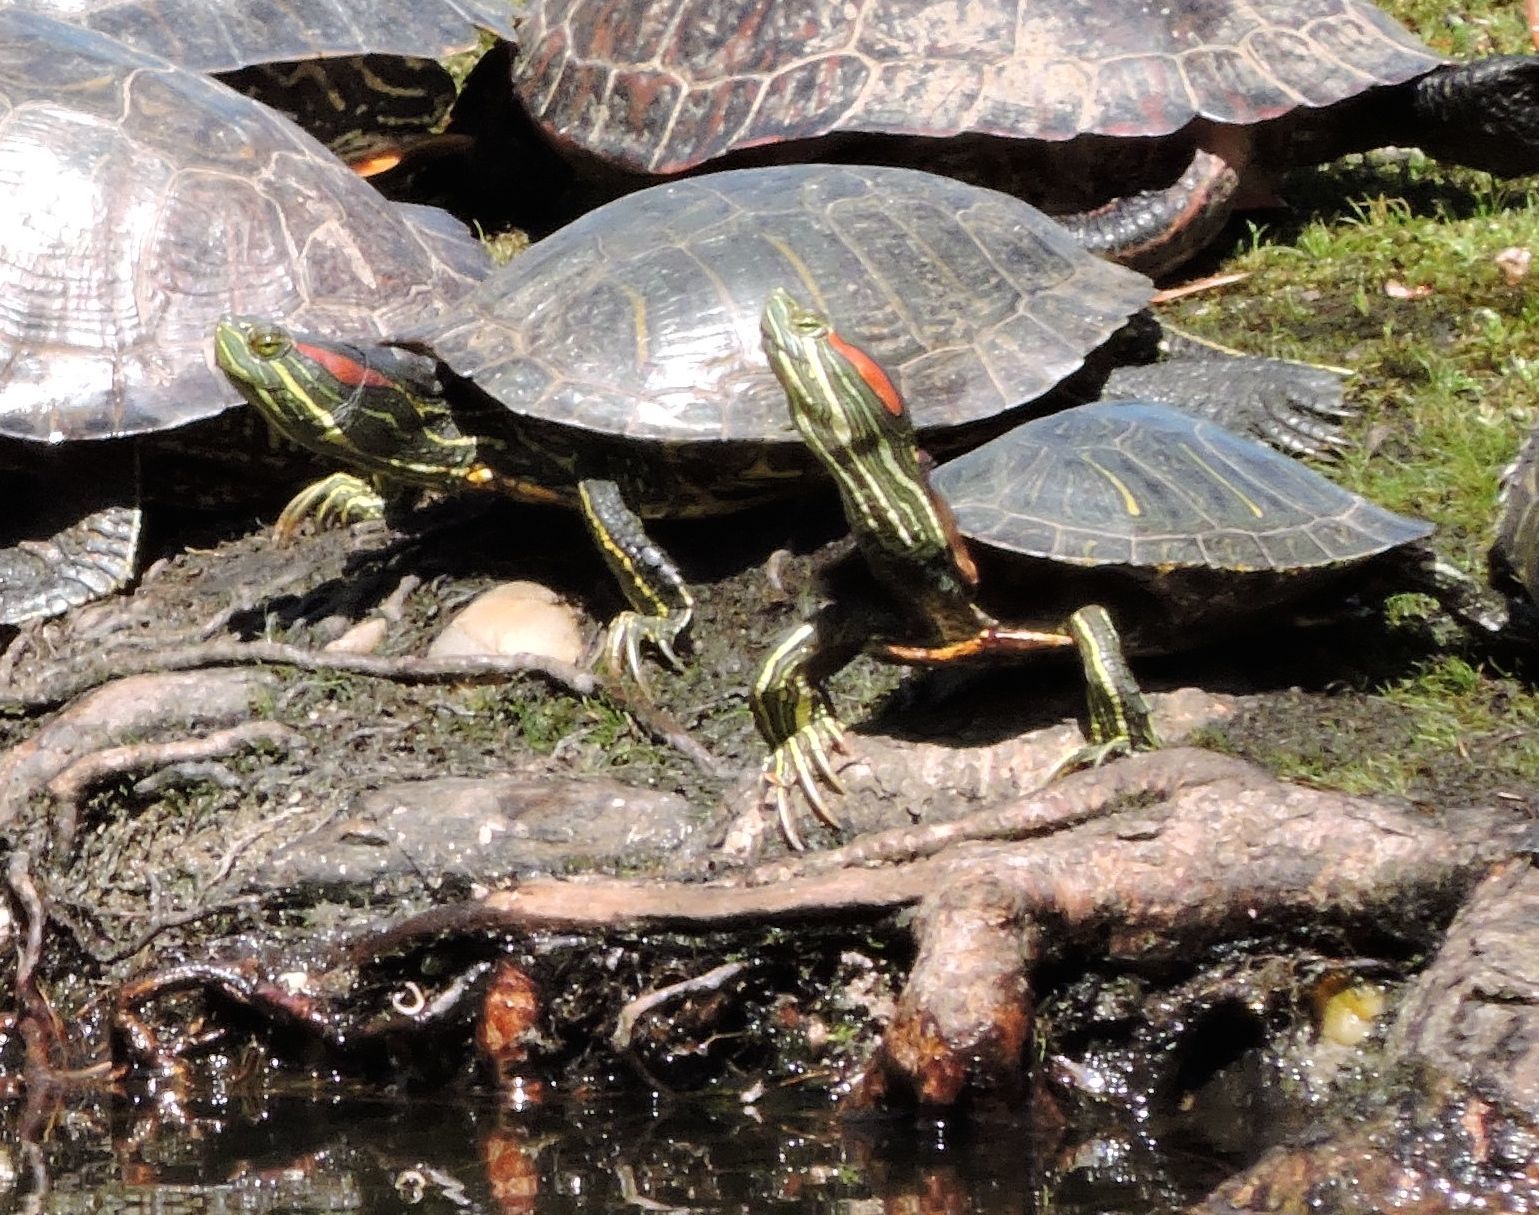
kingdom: Animalia
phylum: Chordata
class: Testudines
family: Emydidae
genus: Trachemys
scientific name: Trachemys scripta
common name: Slider
